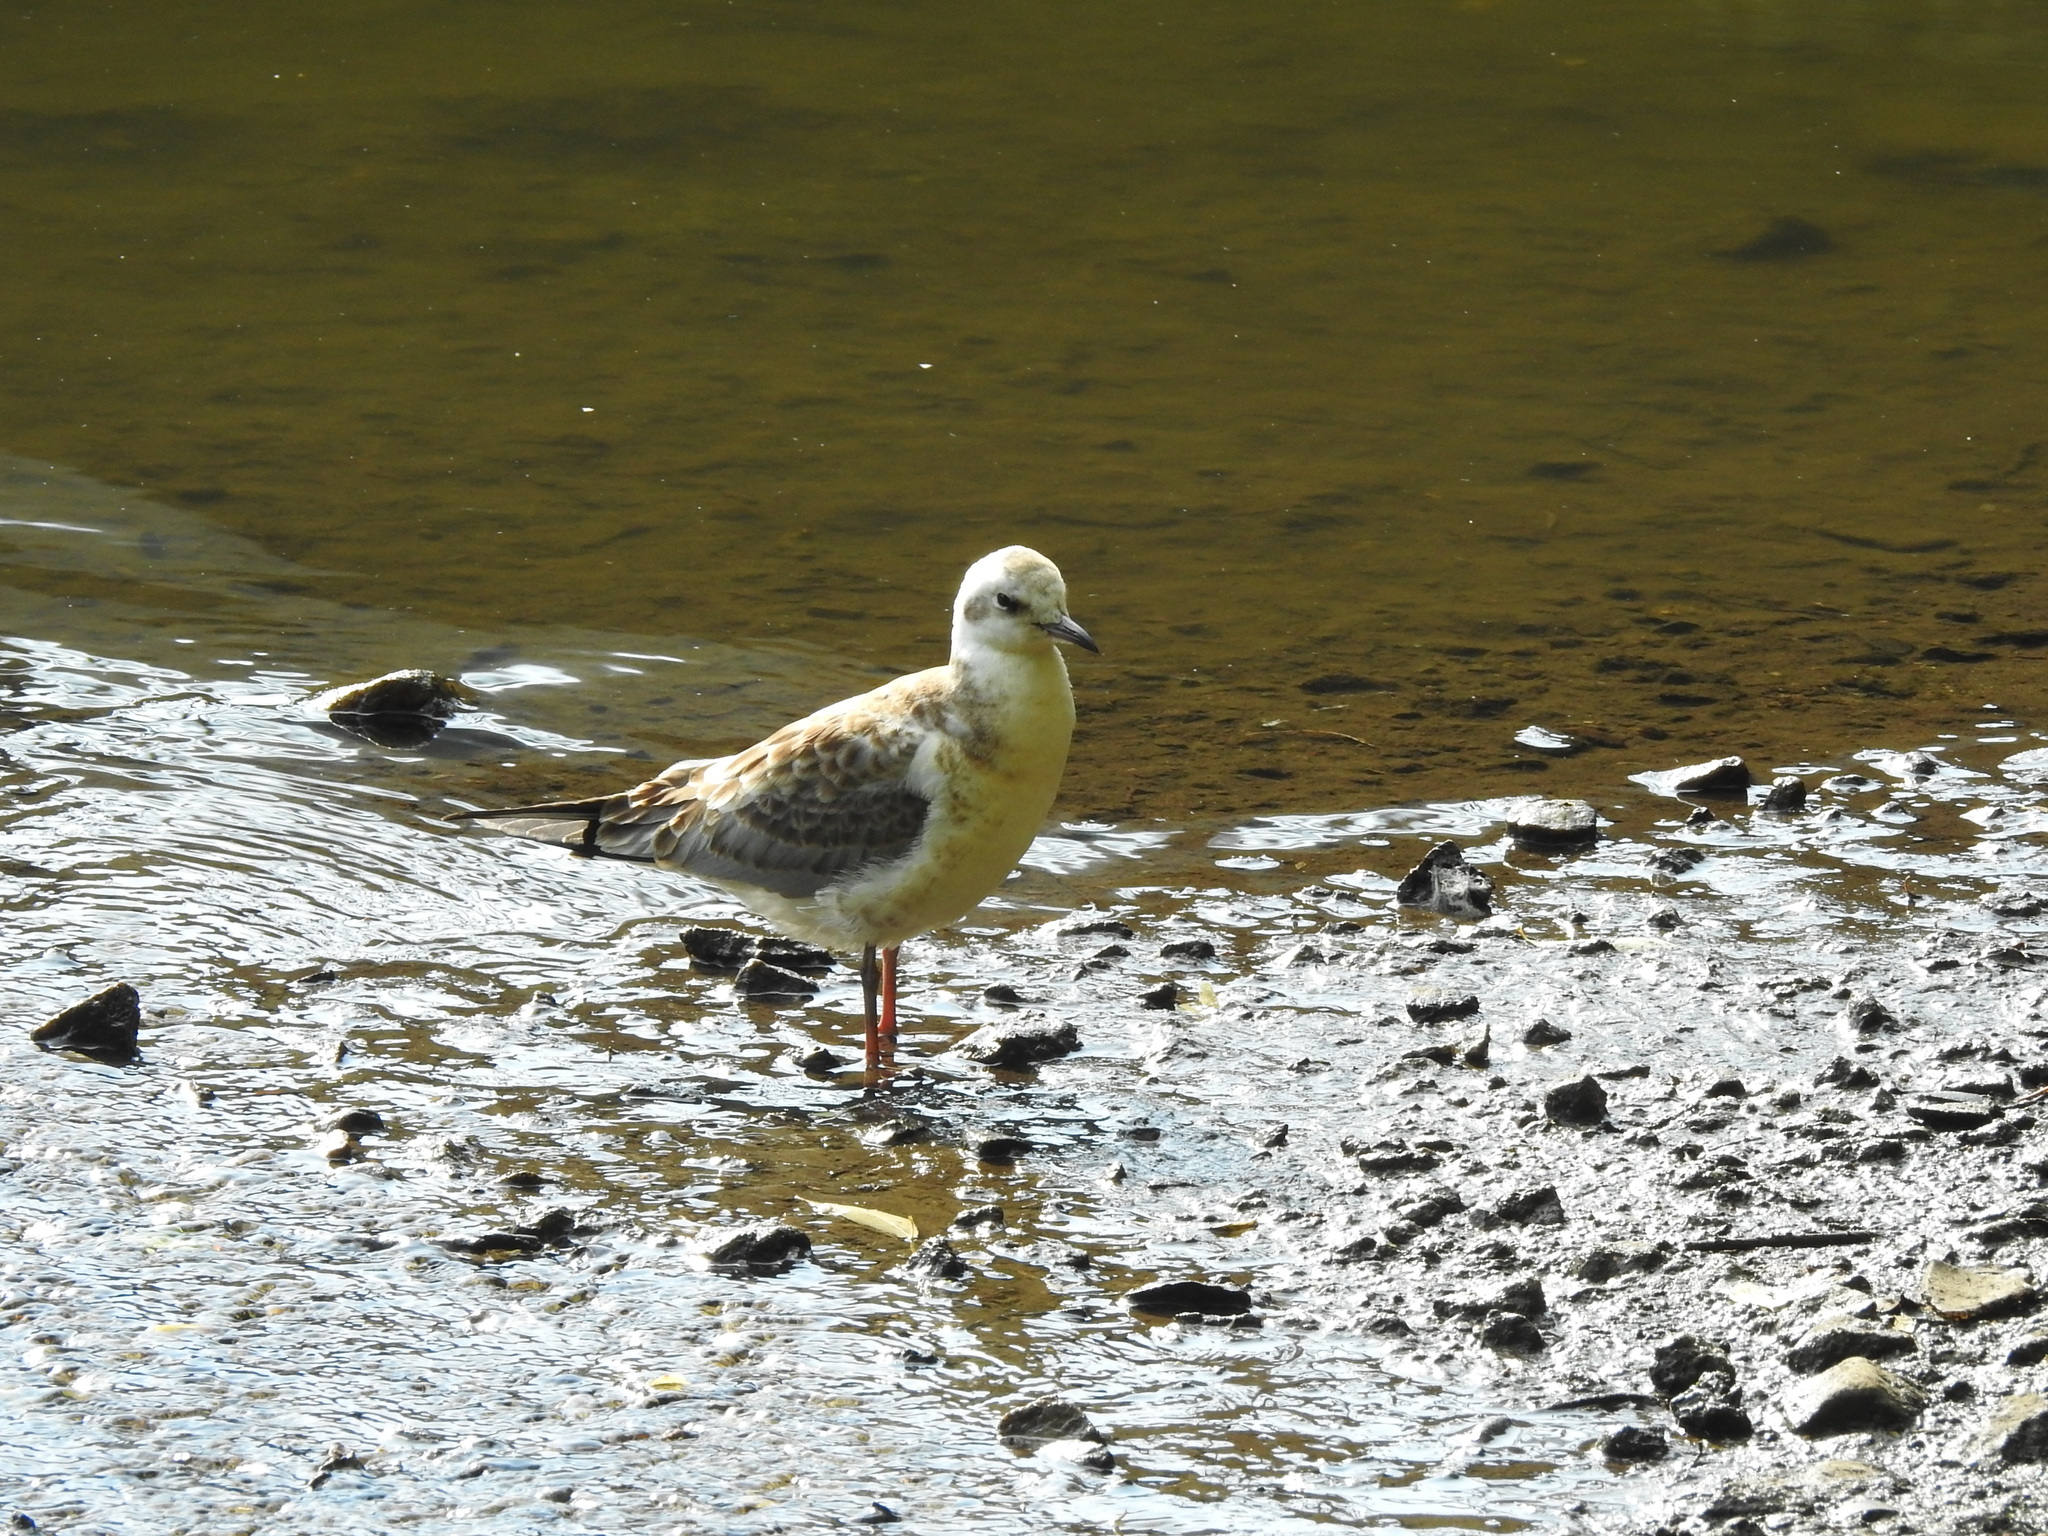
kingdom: Animalia
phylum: Chordata
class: Aves
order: Charadriiformes
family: Laridae
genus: Chroicocephalus
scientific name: Chroicocephalus ridibundus
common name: Black-headed gull
